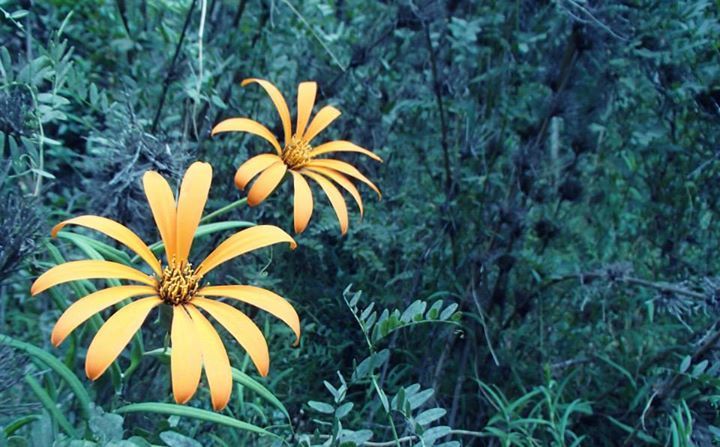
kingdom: Plantae
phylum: Tracheophyta
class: Magnoliopsida
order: Asterales
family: Asteraceae
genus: Mutisia
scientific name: Mutisia decurrens
